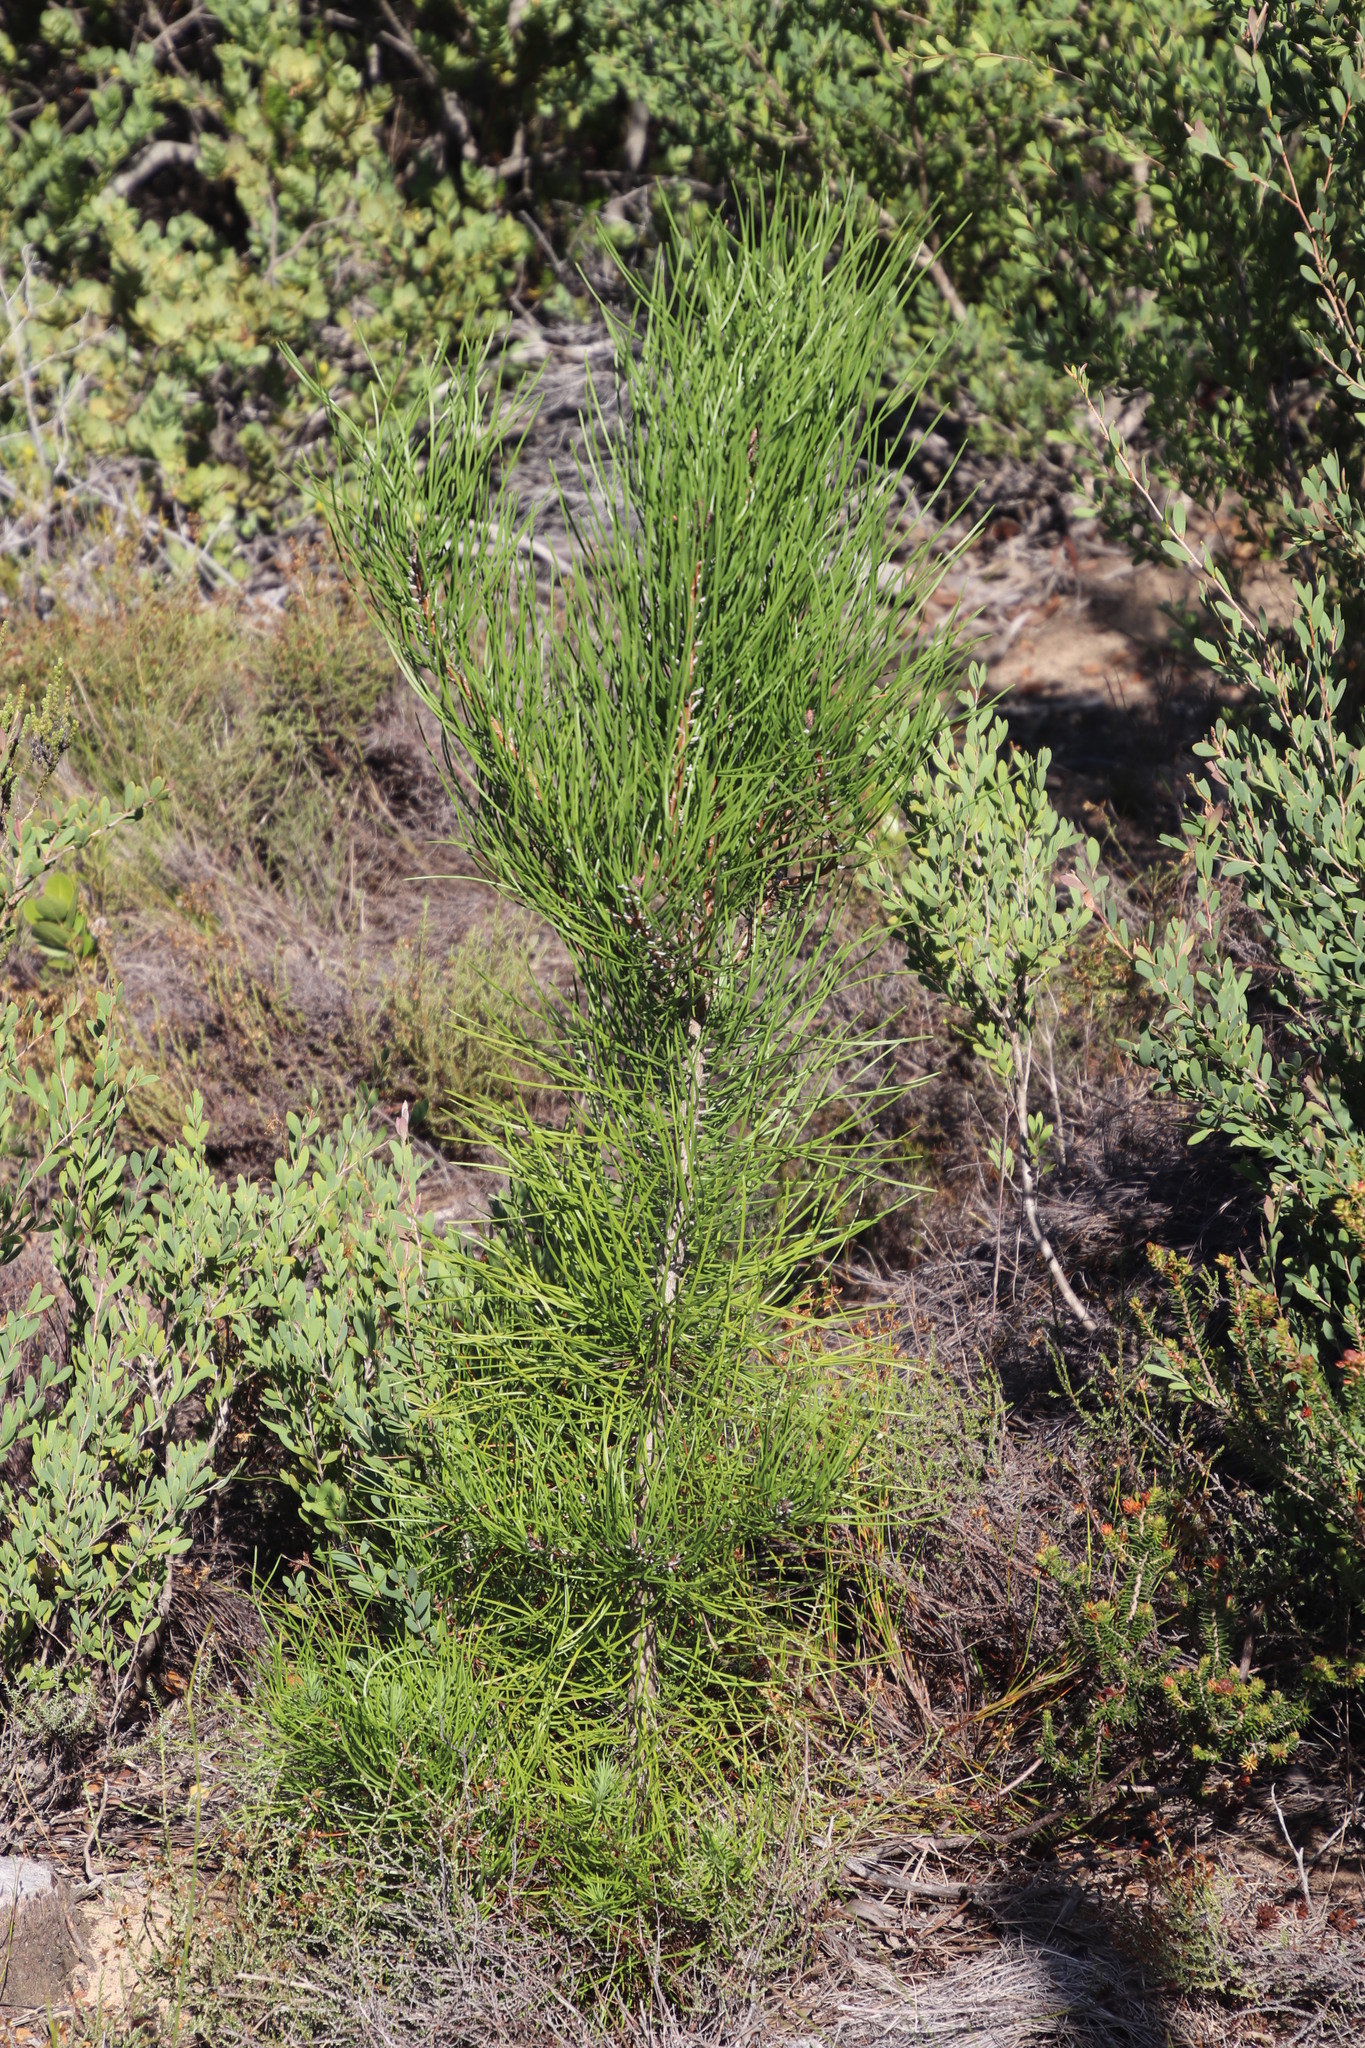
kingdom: Plantae
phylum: Tracheophyta
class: Pinopsida
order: Pinales
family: Pinaceae
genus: Pinus
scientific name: Pinus pinaster
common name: Maritime pine
